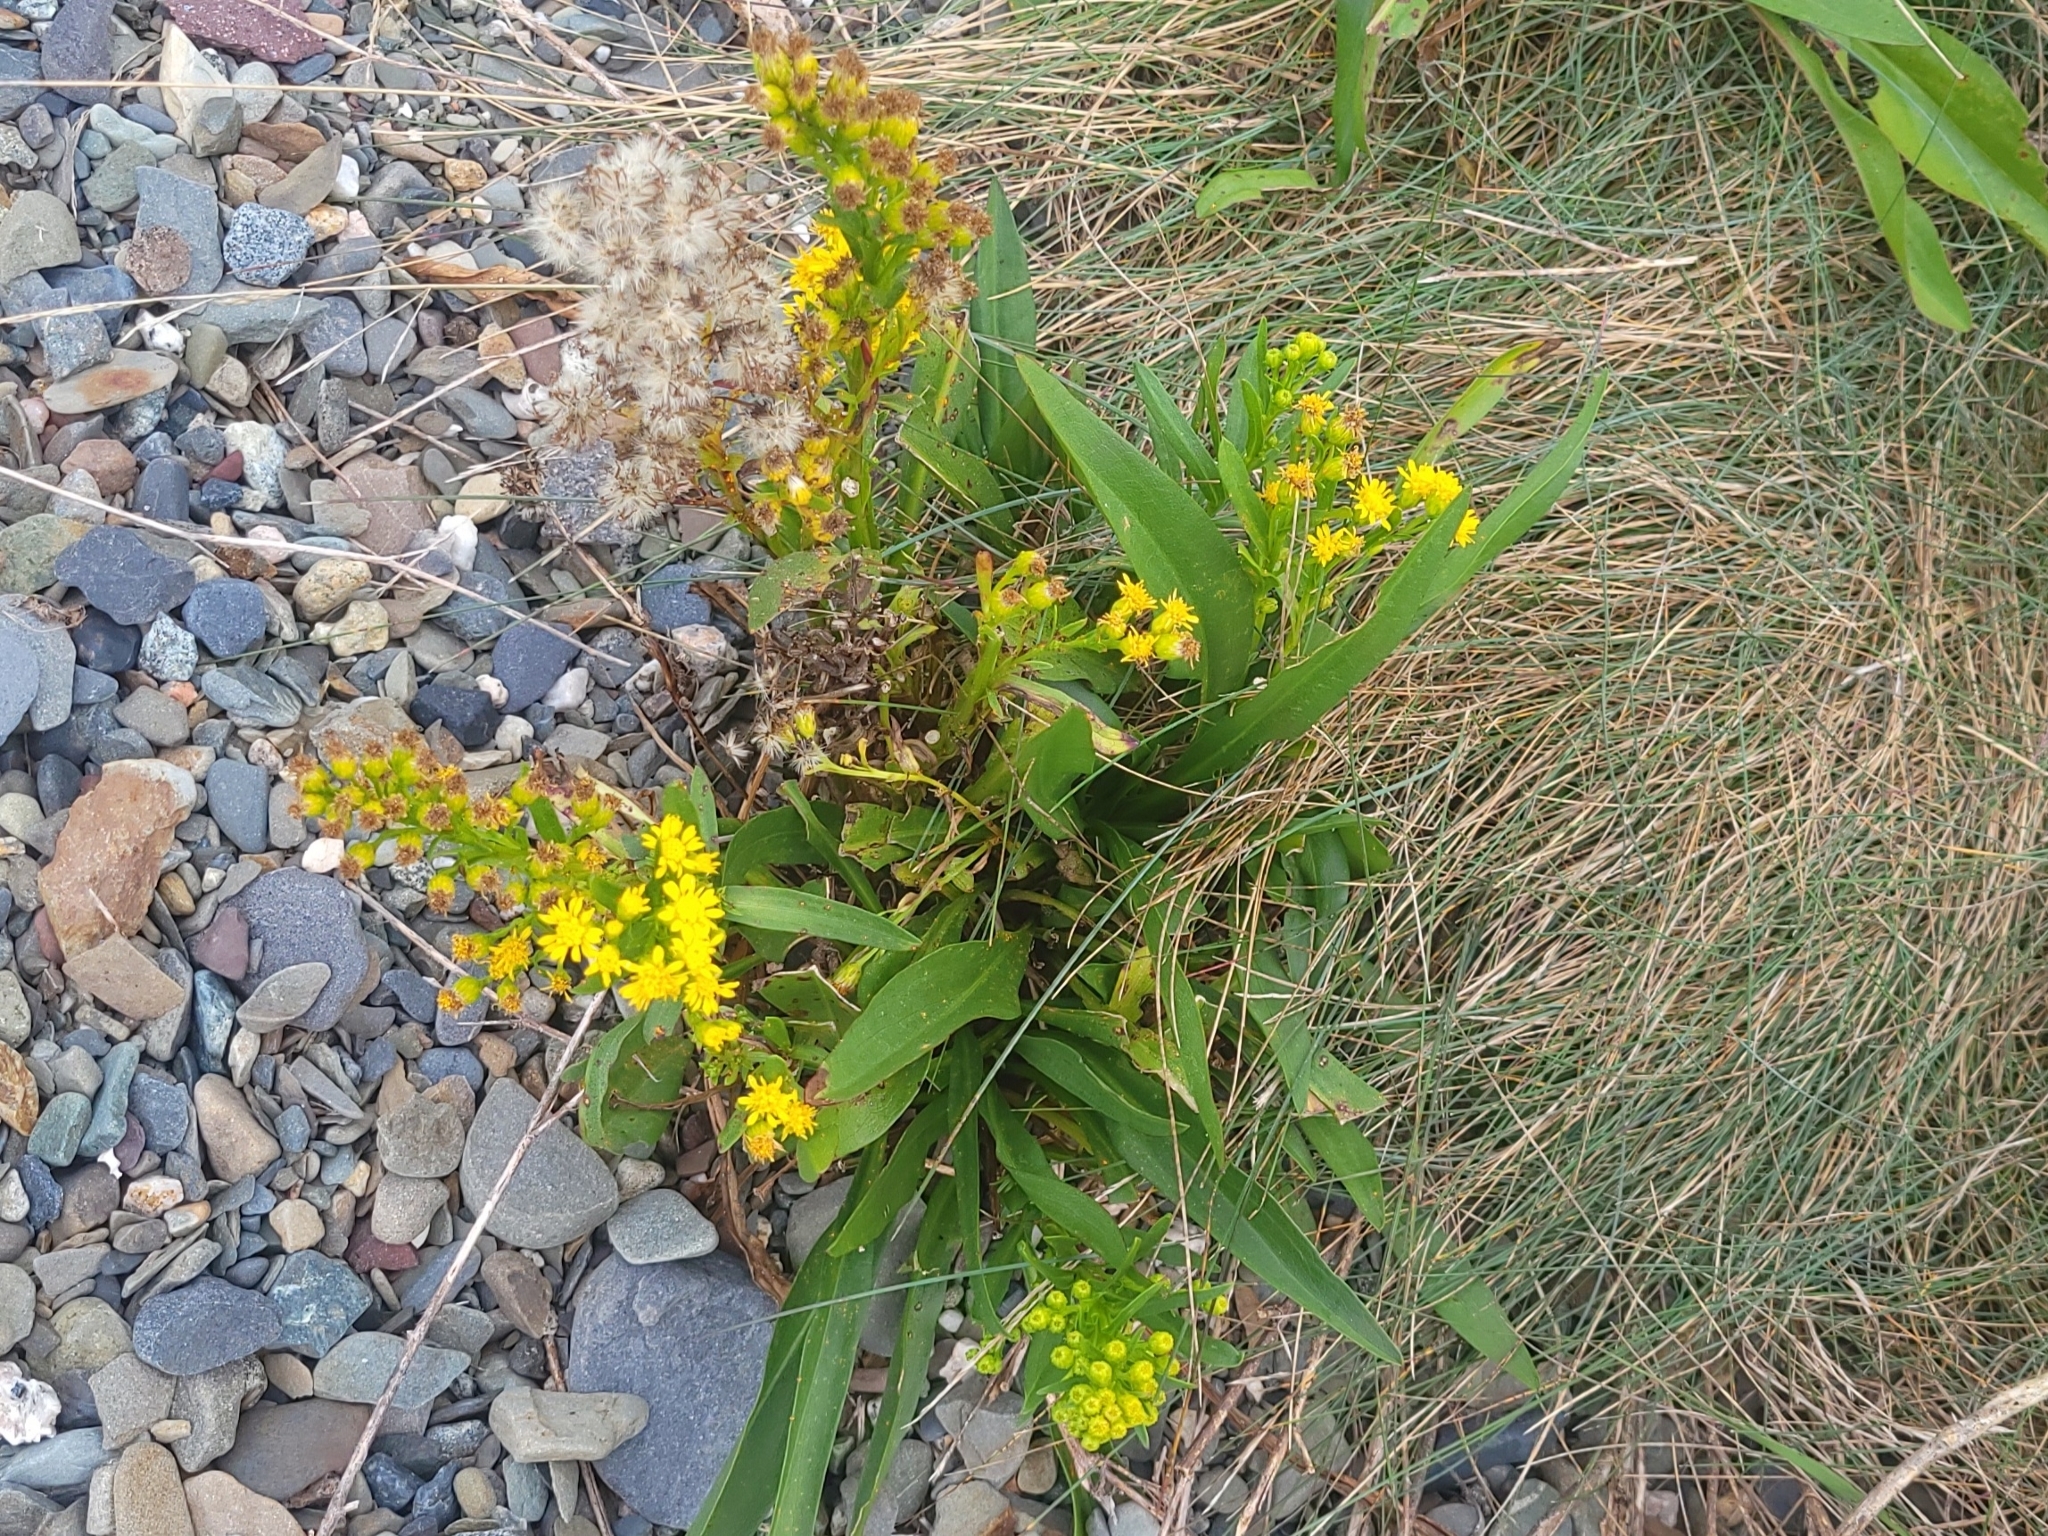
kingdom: Plantae
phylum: Tracheophyta
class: Magnoliopsida
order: Asterales
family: Asteraceae
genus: Solidago
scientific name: Solidago sempervirens
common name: Salt-marsh goldenrod
